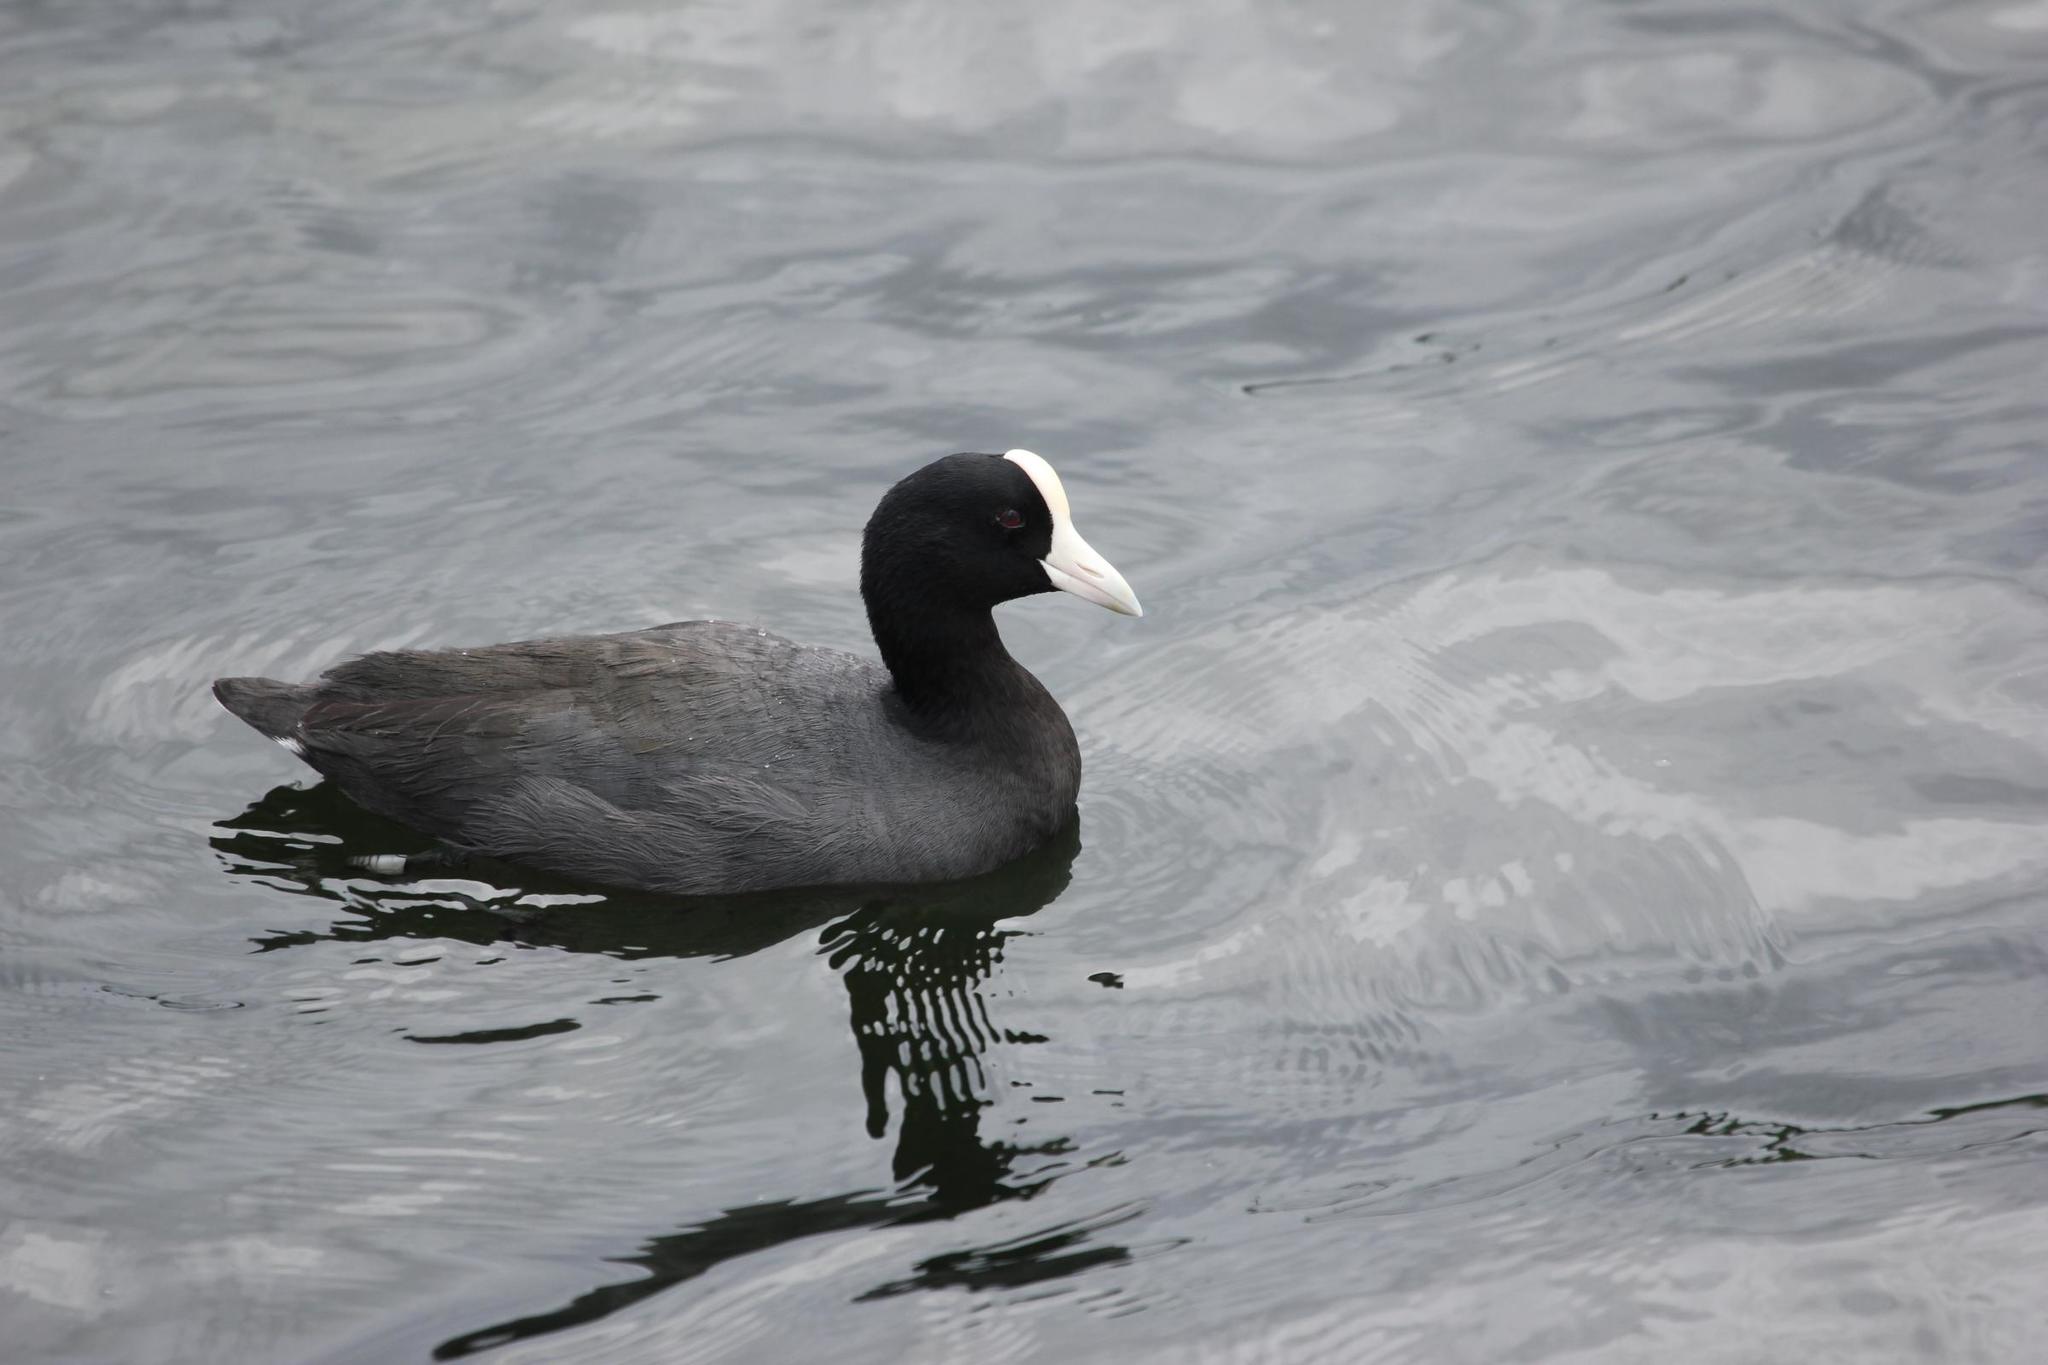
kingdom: Animalia
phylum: Chordata
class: Aves
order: Gruiformes
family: Rallidae
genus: Fulica
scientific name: Fulica alai
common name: Hawaiian coot
